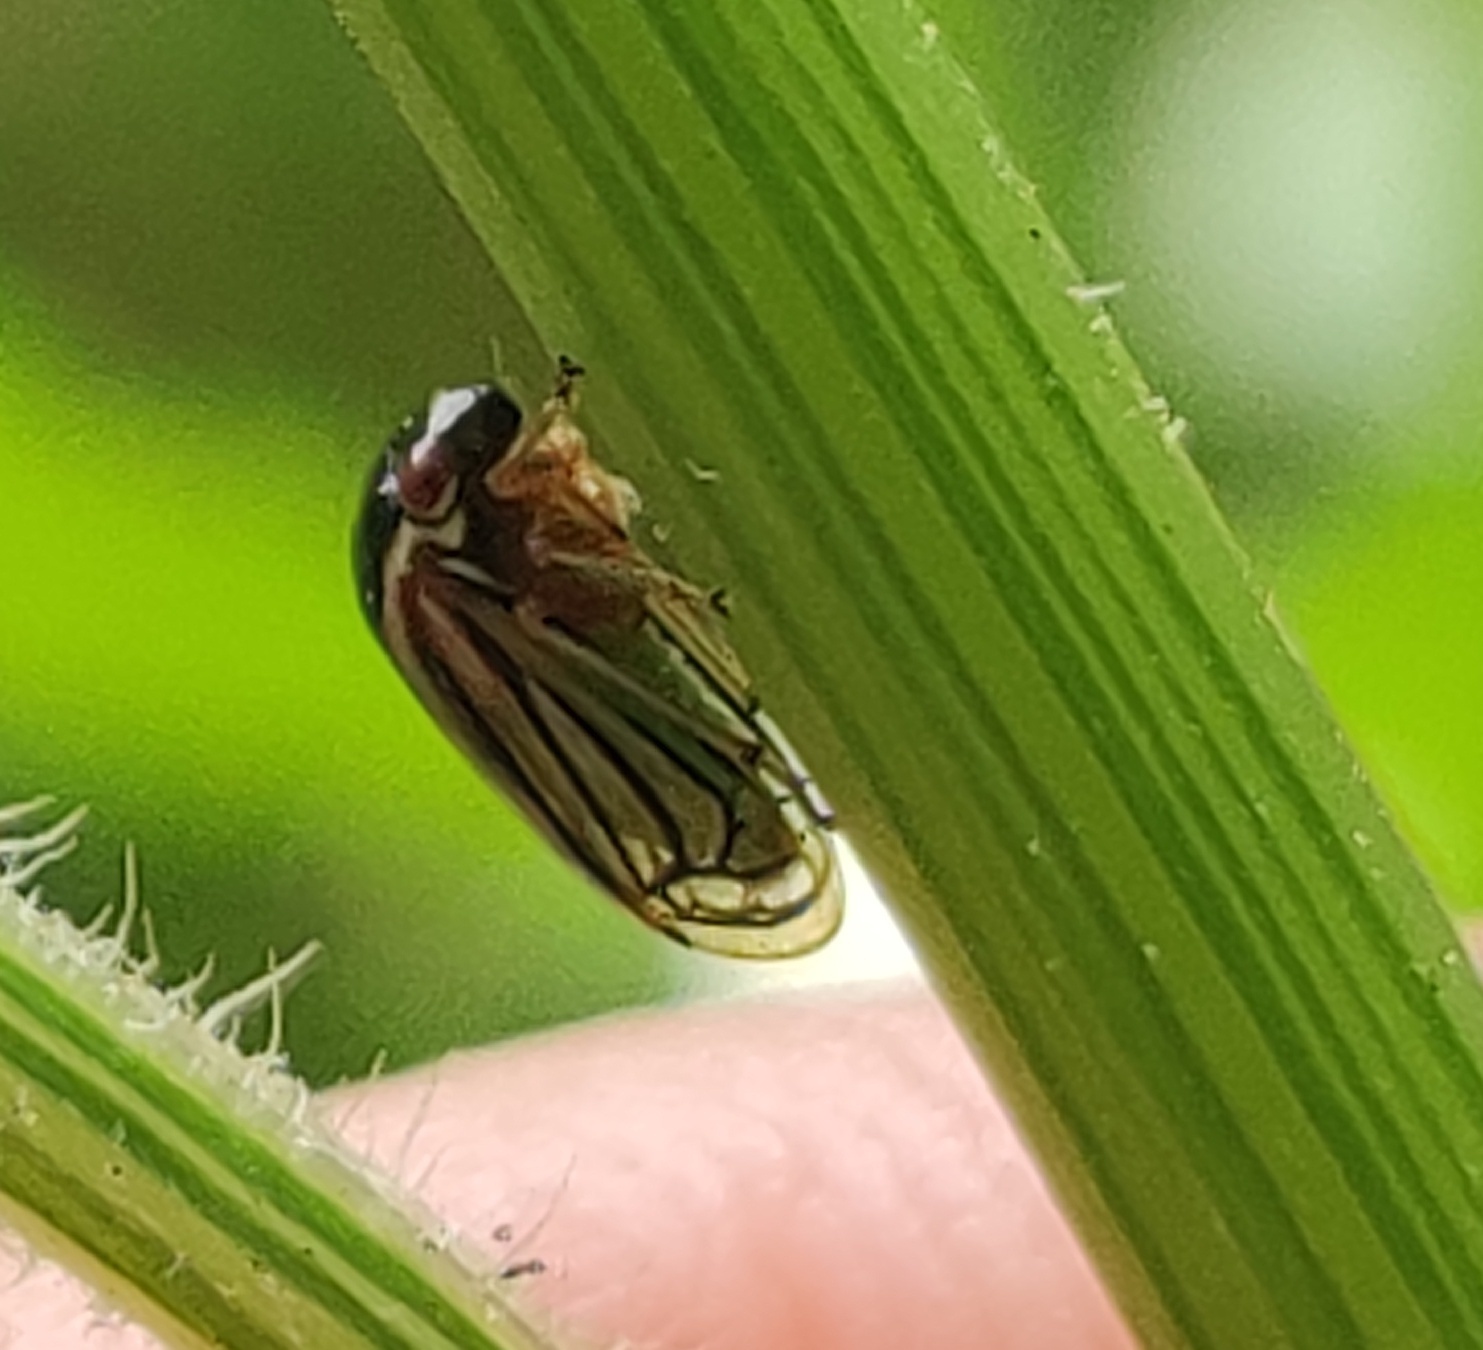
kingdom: Animalia
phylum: Arthropoda
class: Insecta
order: Hemiptera
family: Membracidae
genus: Acutalis
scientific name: Acutalis tartarea
